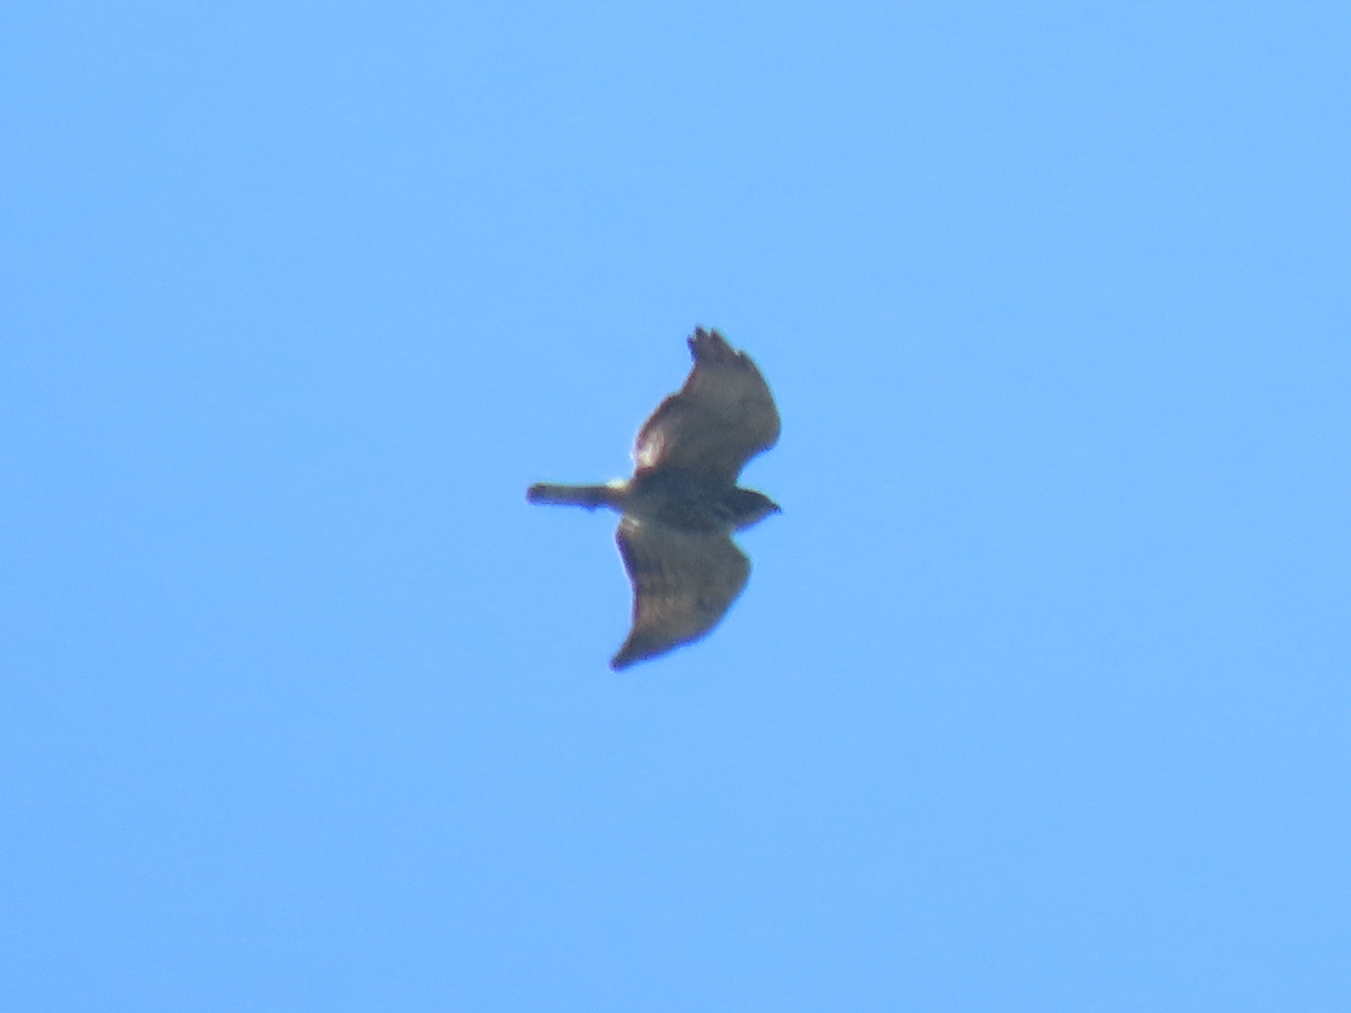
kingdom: Animalia
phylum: Chordata
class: Aves
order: Accipitriformes
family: Accipitridae
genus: Buteo
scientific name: Buteo platypterus
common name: Broad-winged hawk
